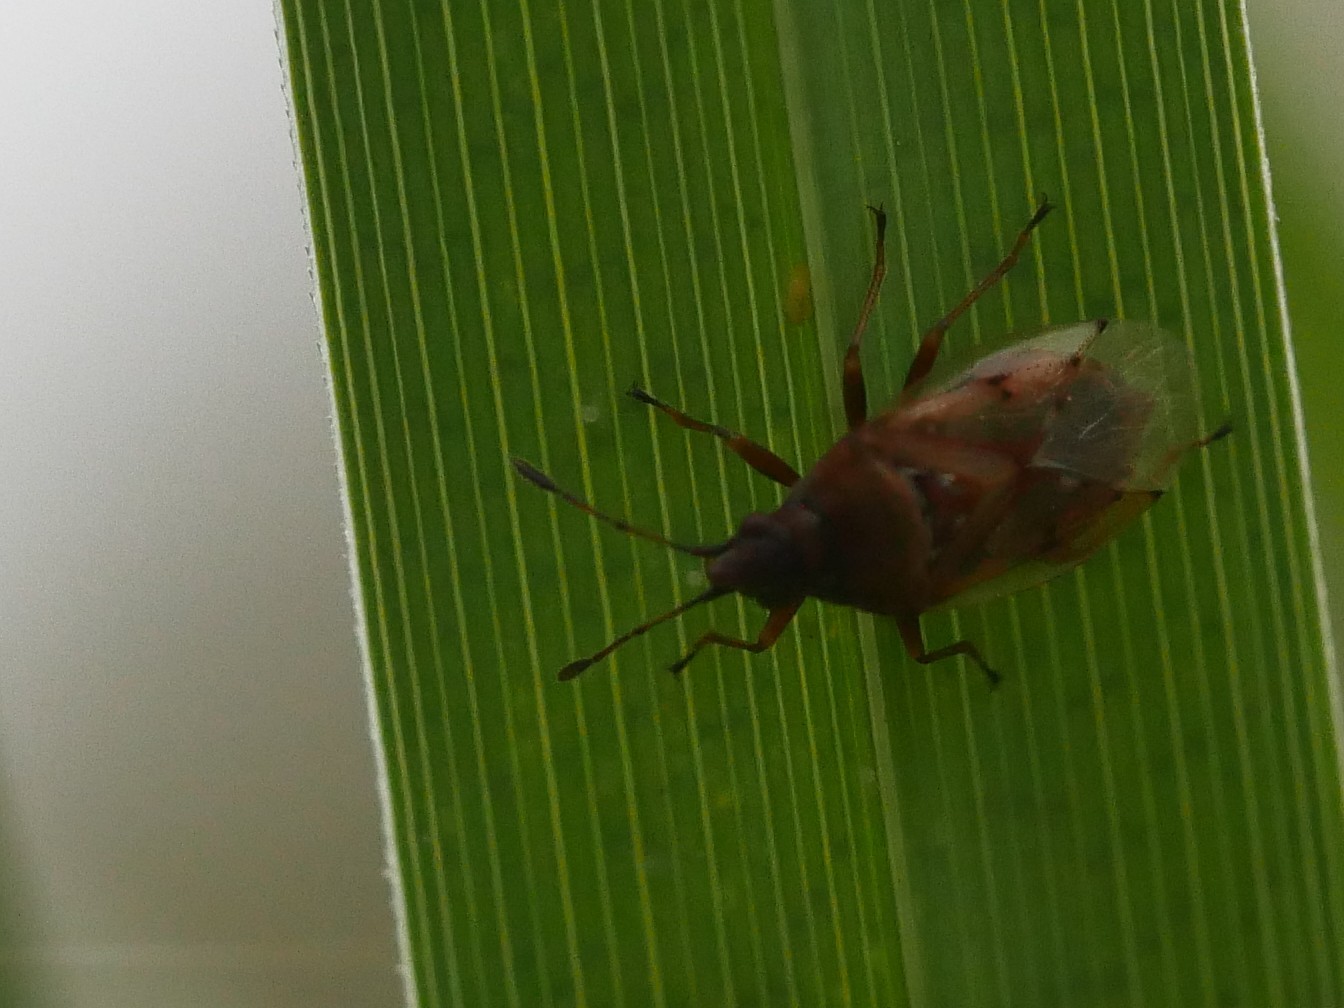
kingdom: Animalia
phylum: Arthropoda
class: Insecta
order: Hemiptera
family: Lygaeidae
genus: Kleidocerys
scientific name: Kleidocerys resedae
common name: Birch catkin bug
